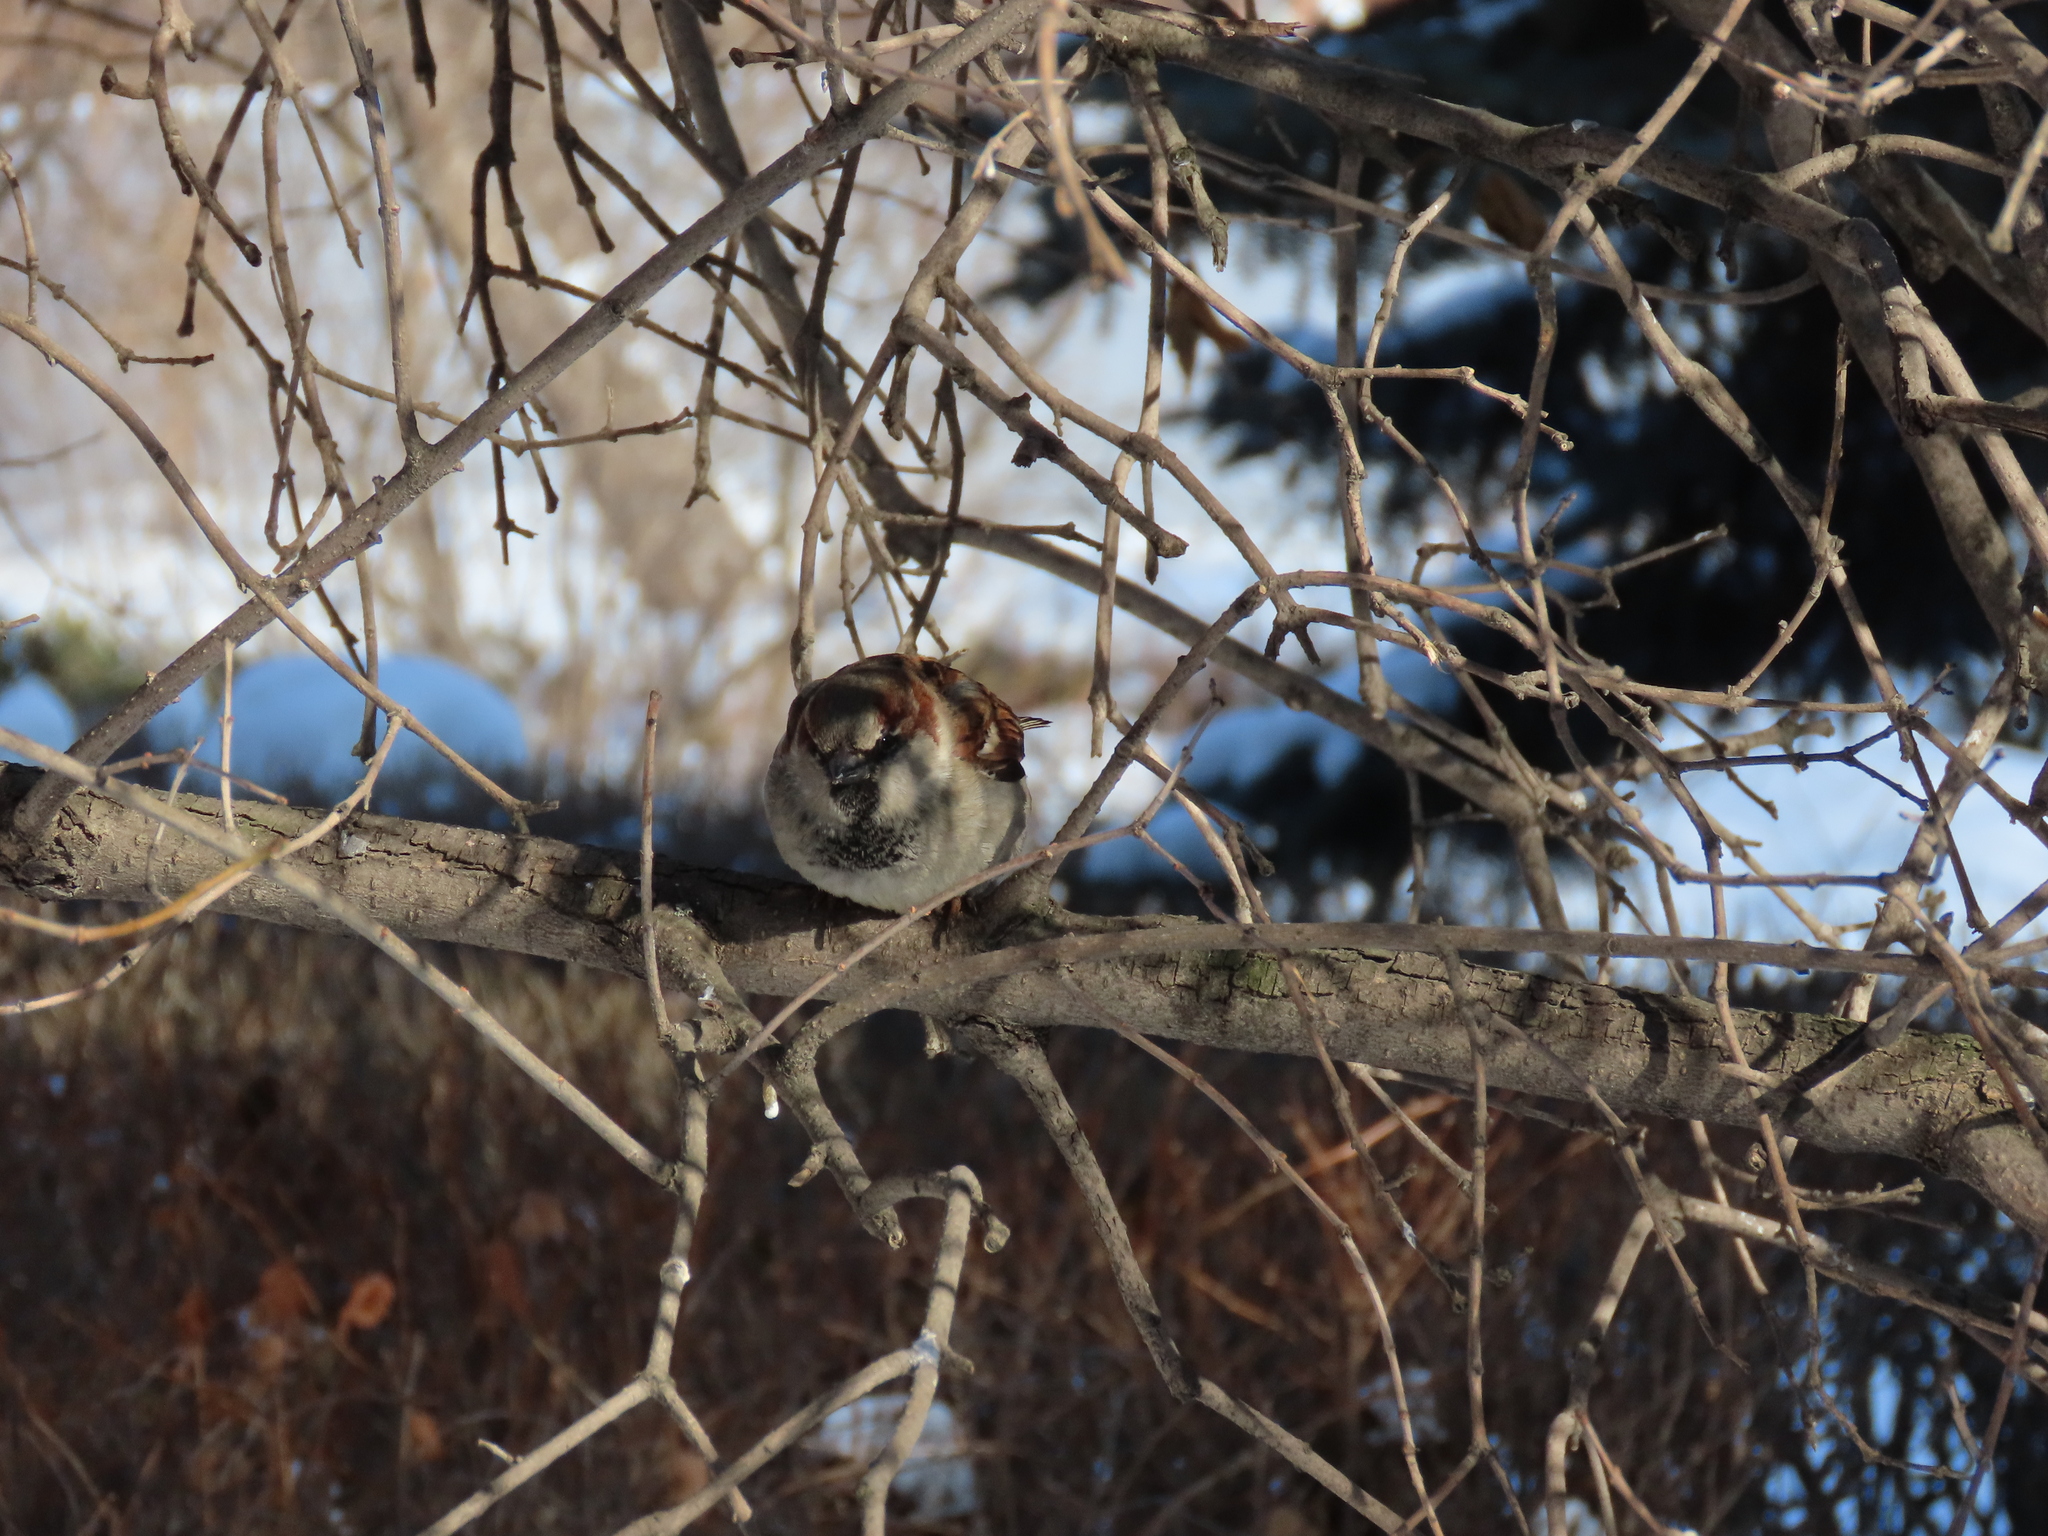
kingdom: Animalia
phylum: Chordata
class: Aves
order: Passeriformes
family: Passeridae
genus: Passer
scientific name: Passer domesticus
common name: House sparrow
